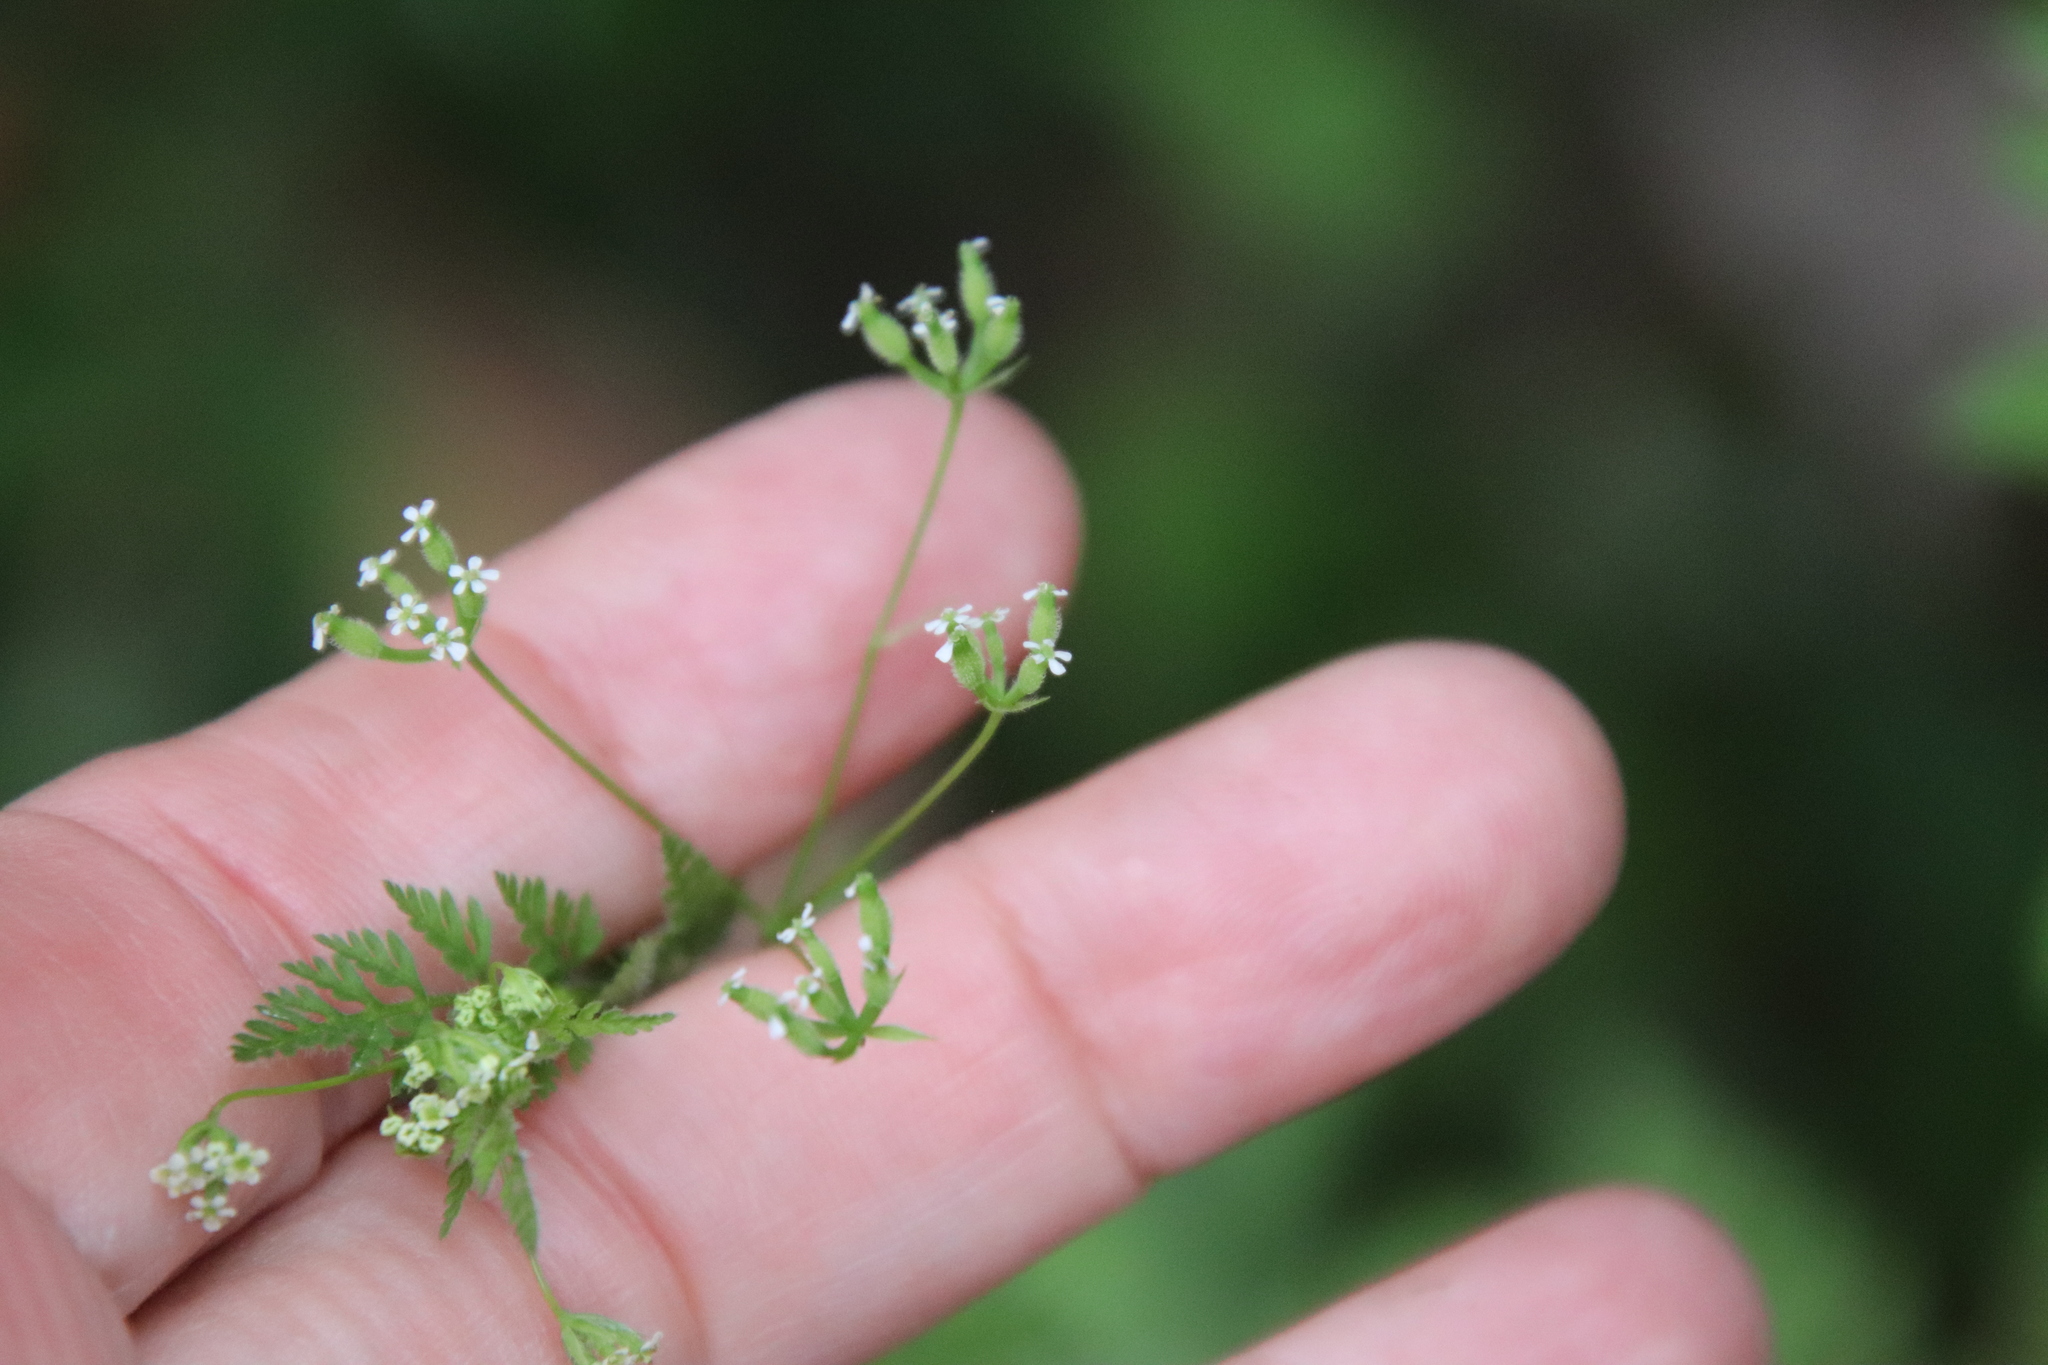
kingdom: Plantae
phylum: Tracheophyta
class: Magnoliopsida
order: Apiales
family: Apiaceae
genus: Anthriscus
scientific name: Anthriscus caucalis
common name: Bur chervil
